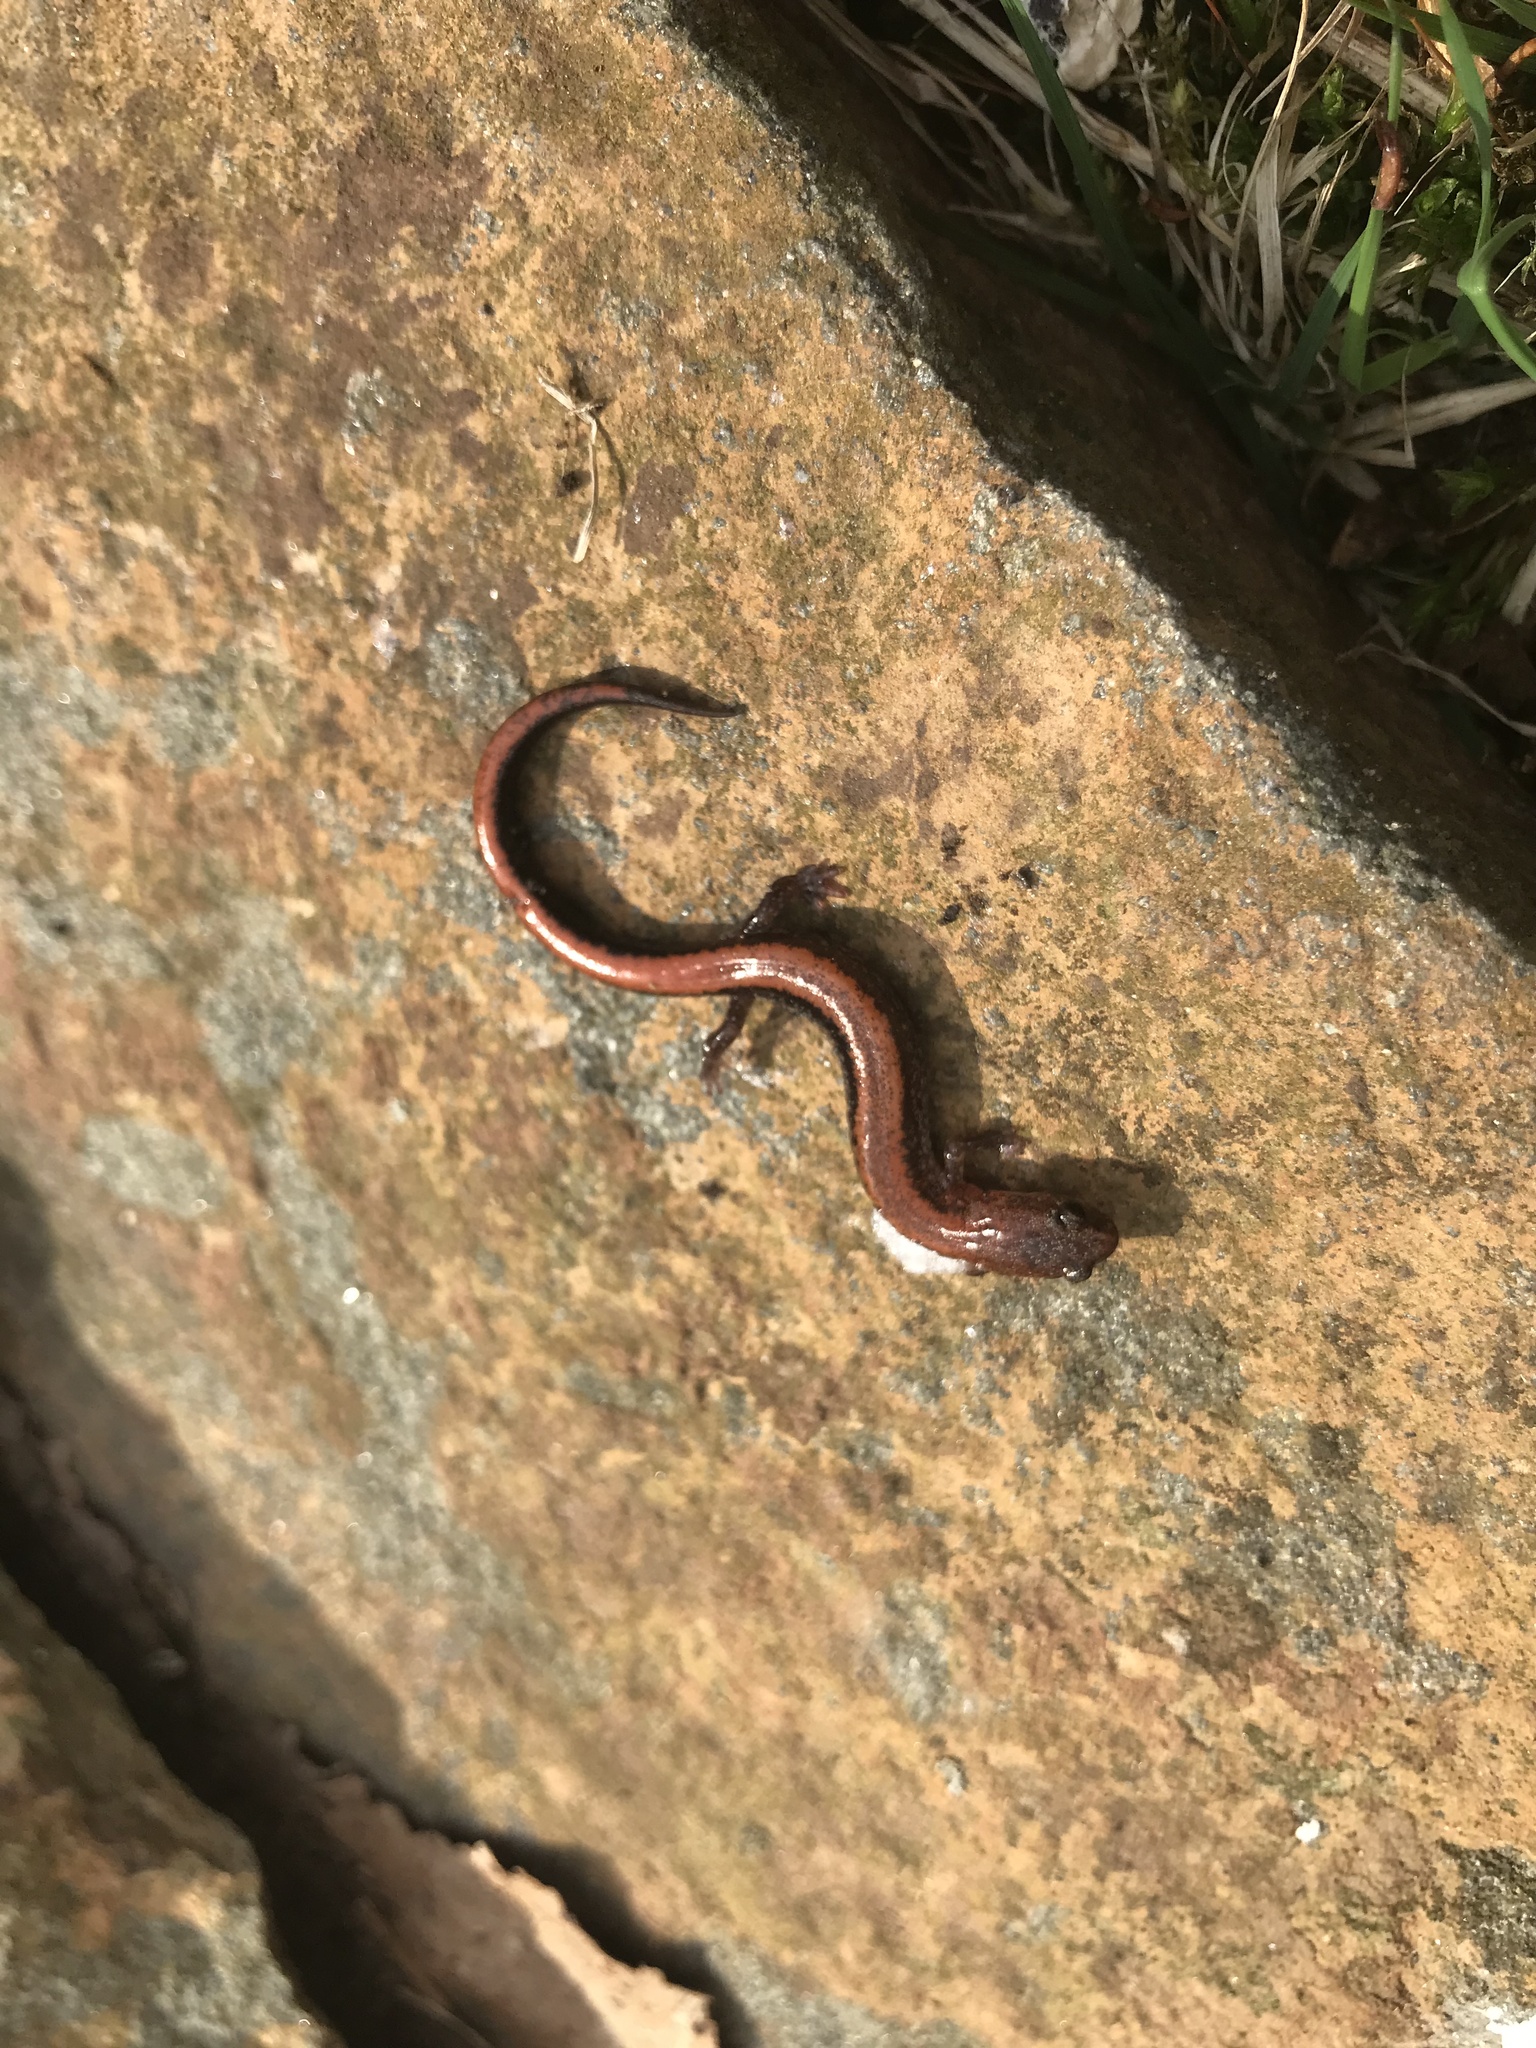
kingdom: Animalia
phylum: Chordata
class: Amphibia
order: Caudata
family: Plethodontidae
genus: Plethodon
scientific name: Plethodon cinereus
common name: Redback salamander
